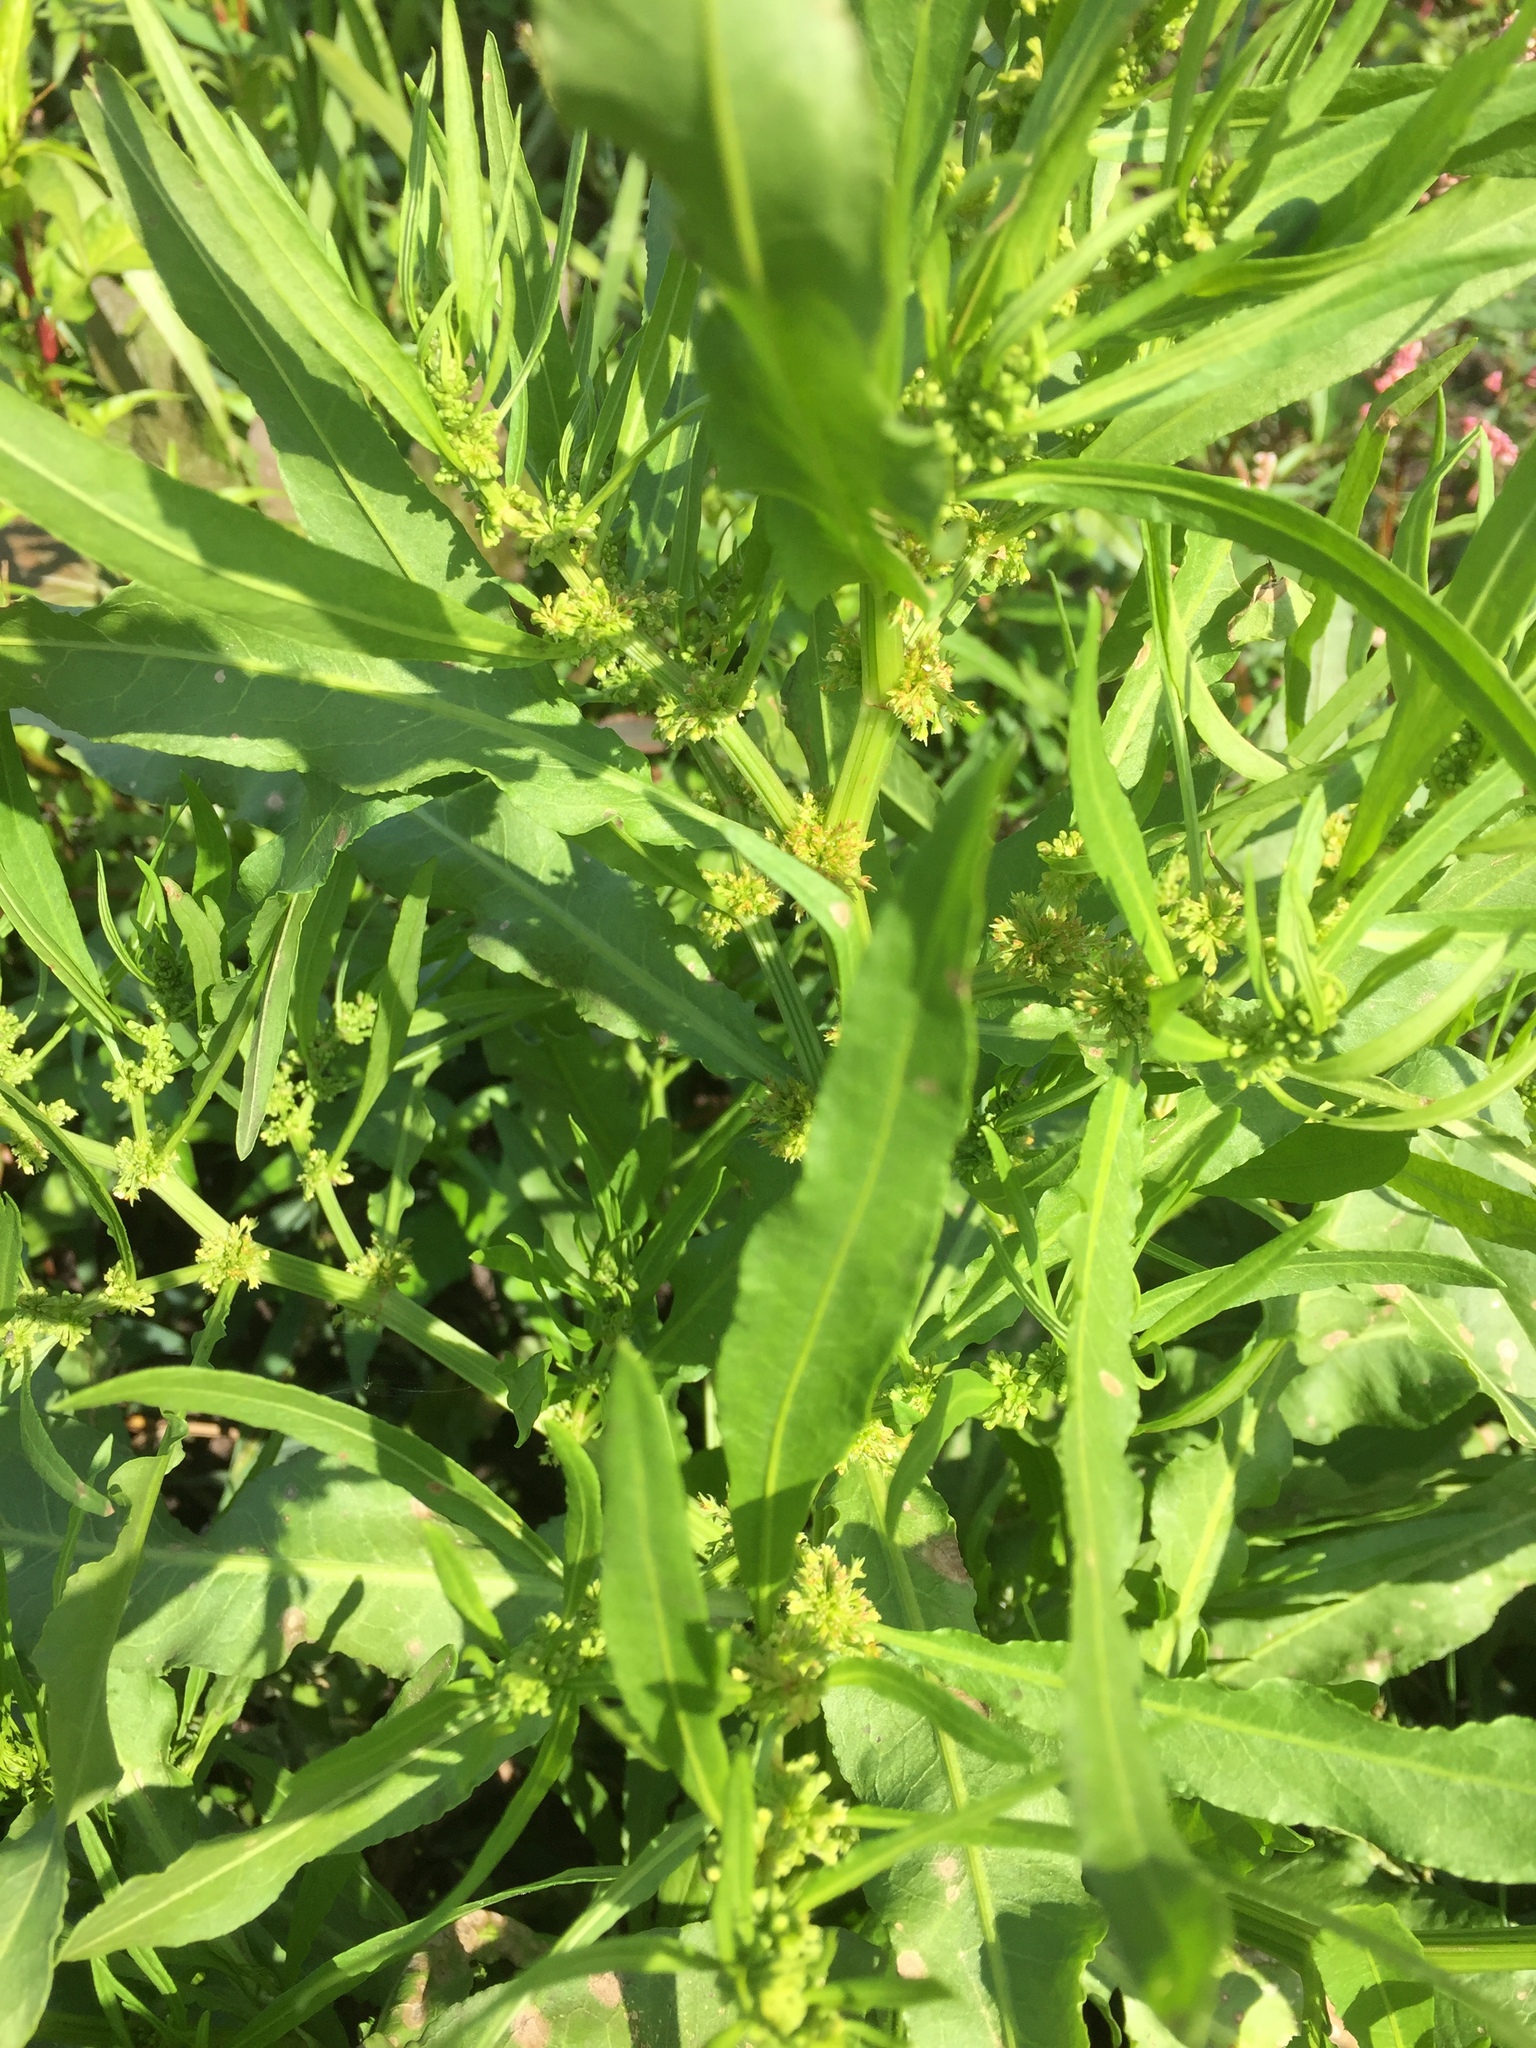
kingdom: Plantae
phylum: Tracheophyta
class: Magnoliopsida
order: Caryophyllales
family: Polygonaceae
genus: Rumex
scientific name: Rumex maritimus
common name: Golden dock
